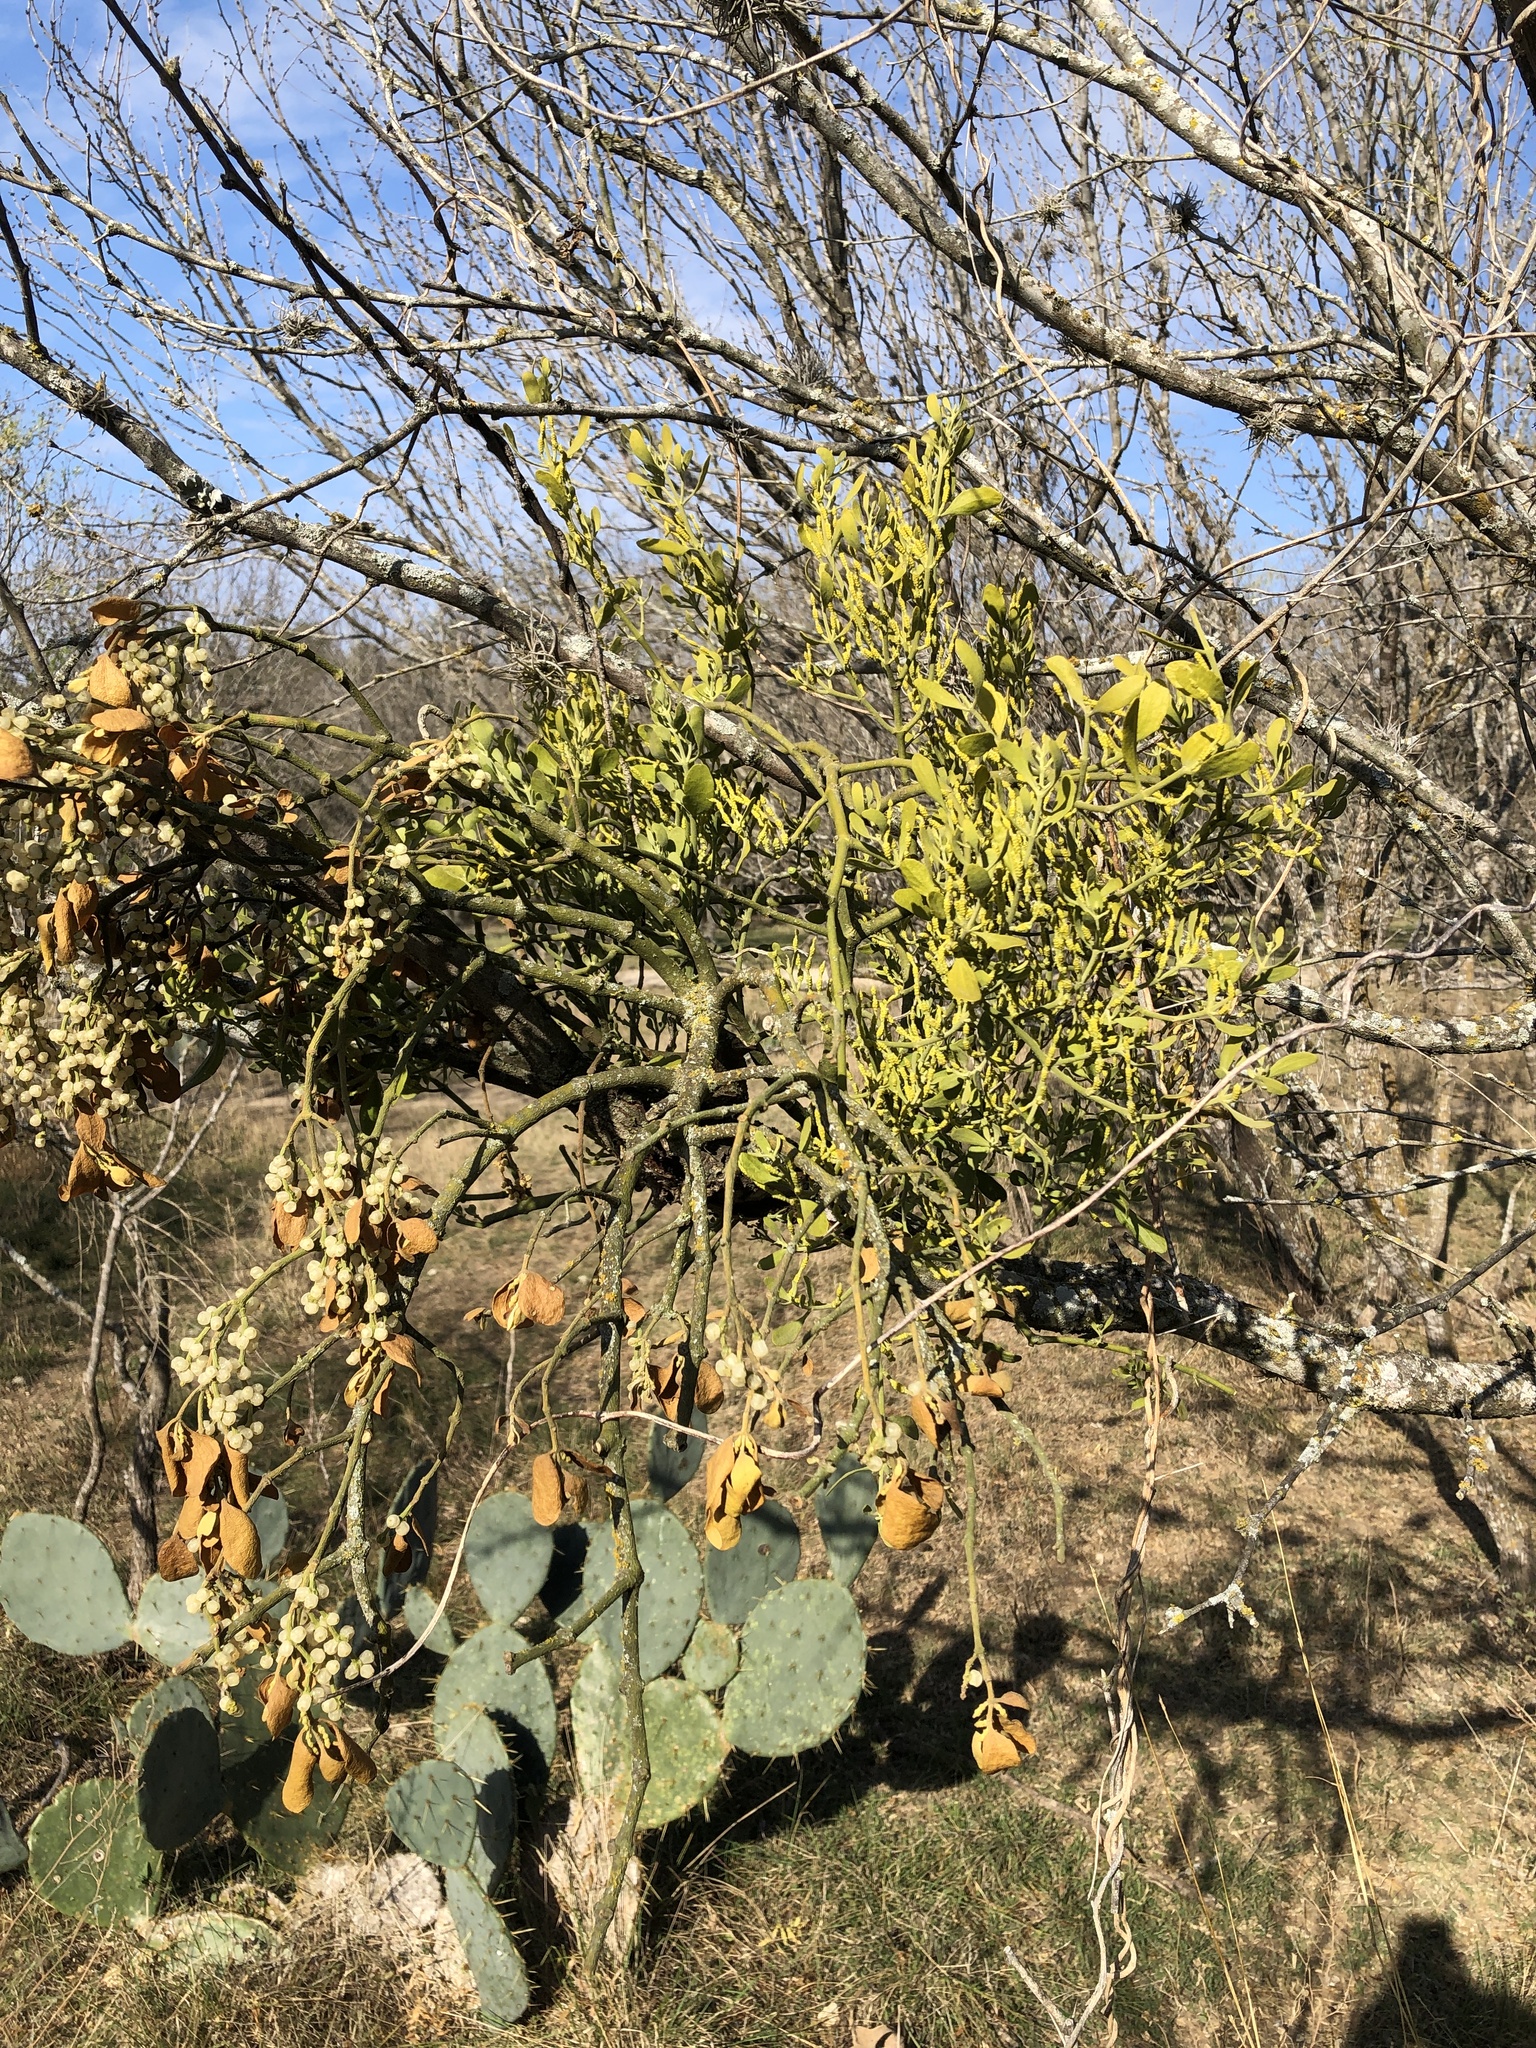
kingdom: Plantae
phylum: Tracheophyta
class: Magnoliopsida
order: Santalales
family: Viscaceae
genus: Phoradendron
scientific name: Phoradendron leucarpum
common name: Pacific mistletoe
